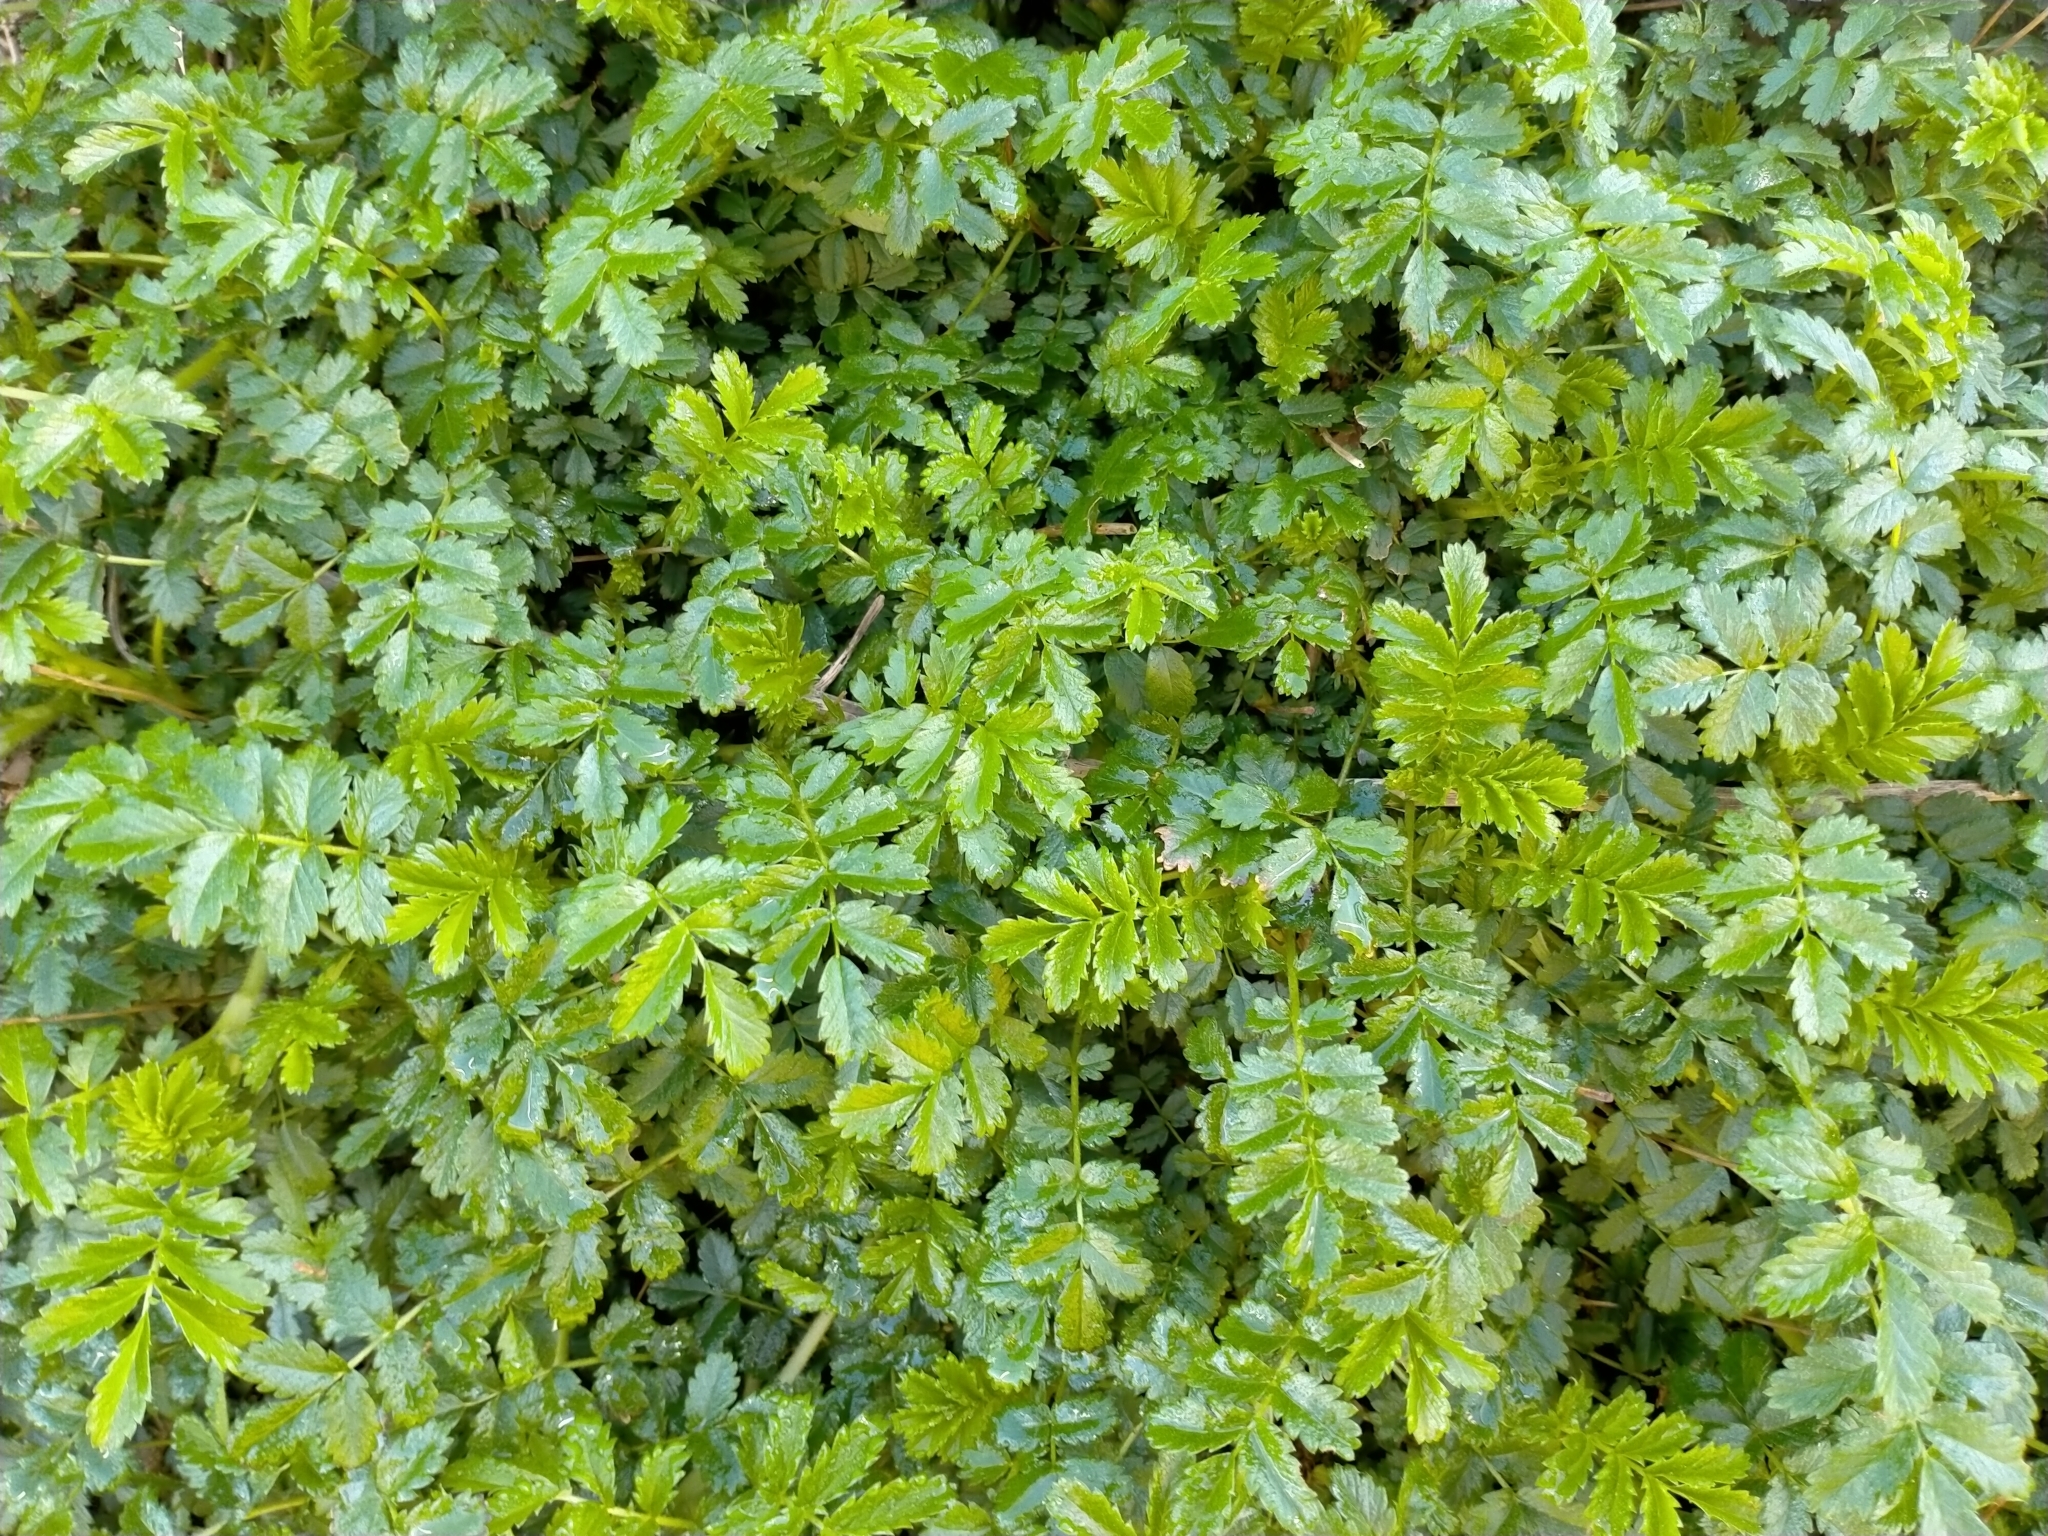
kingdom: Plantae
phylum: Tracheophyta
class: Magnoliopsida
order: Rosales
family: Rosaceae
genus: Acaena
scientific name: Acaena pallida
